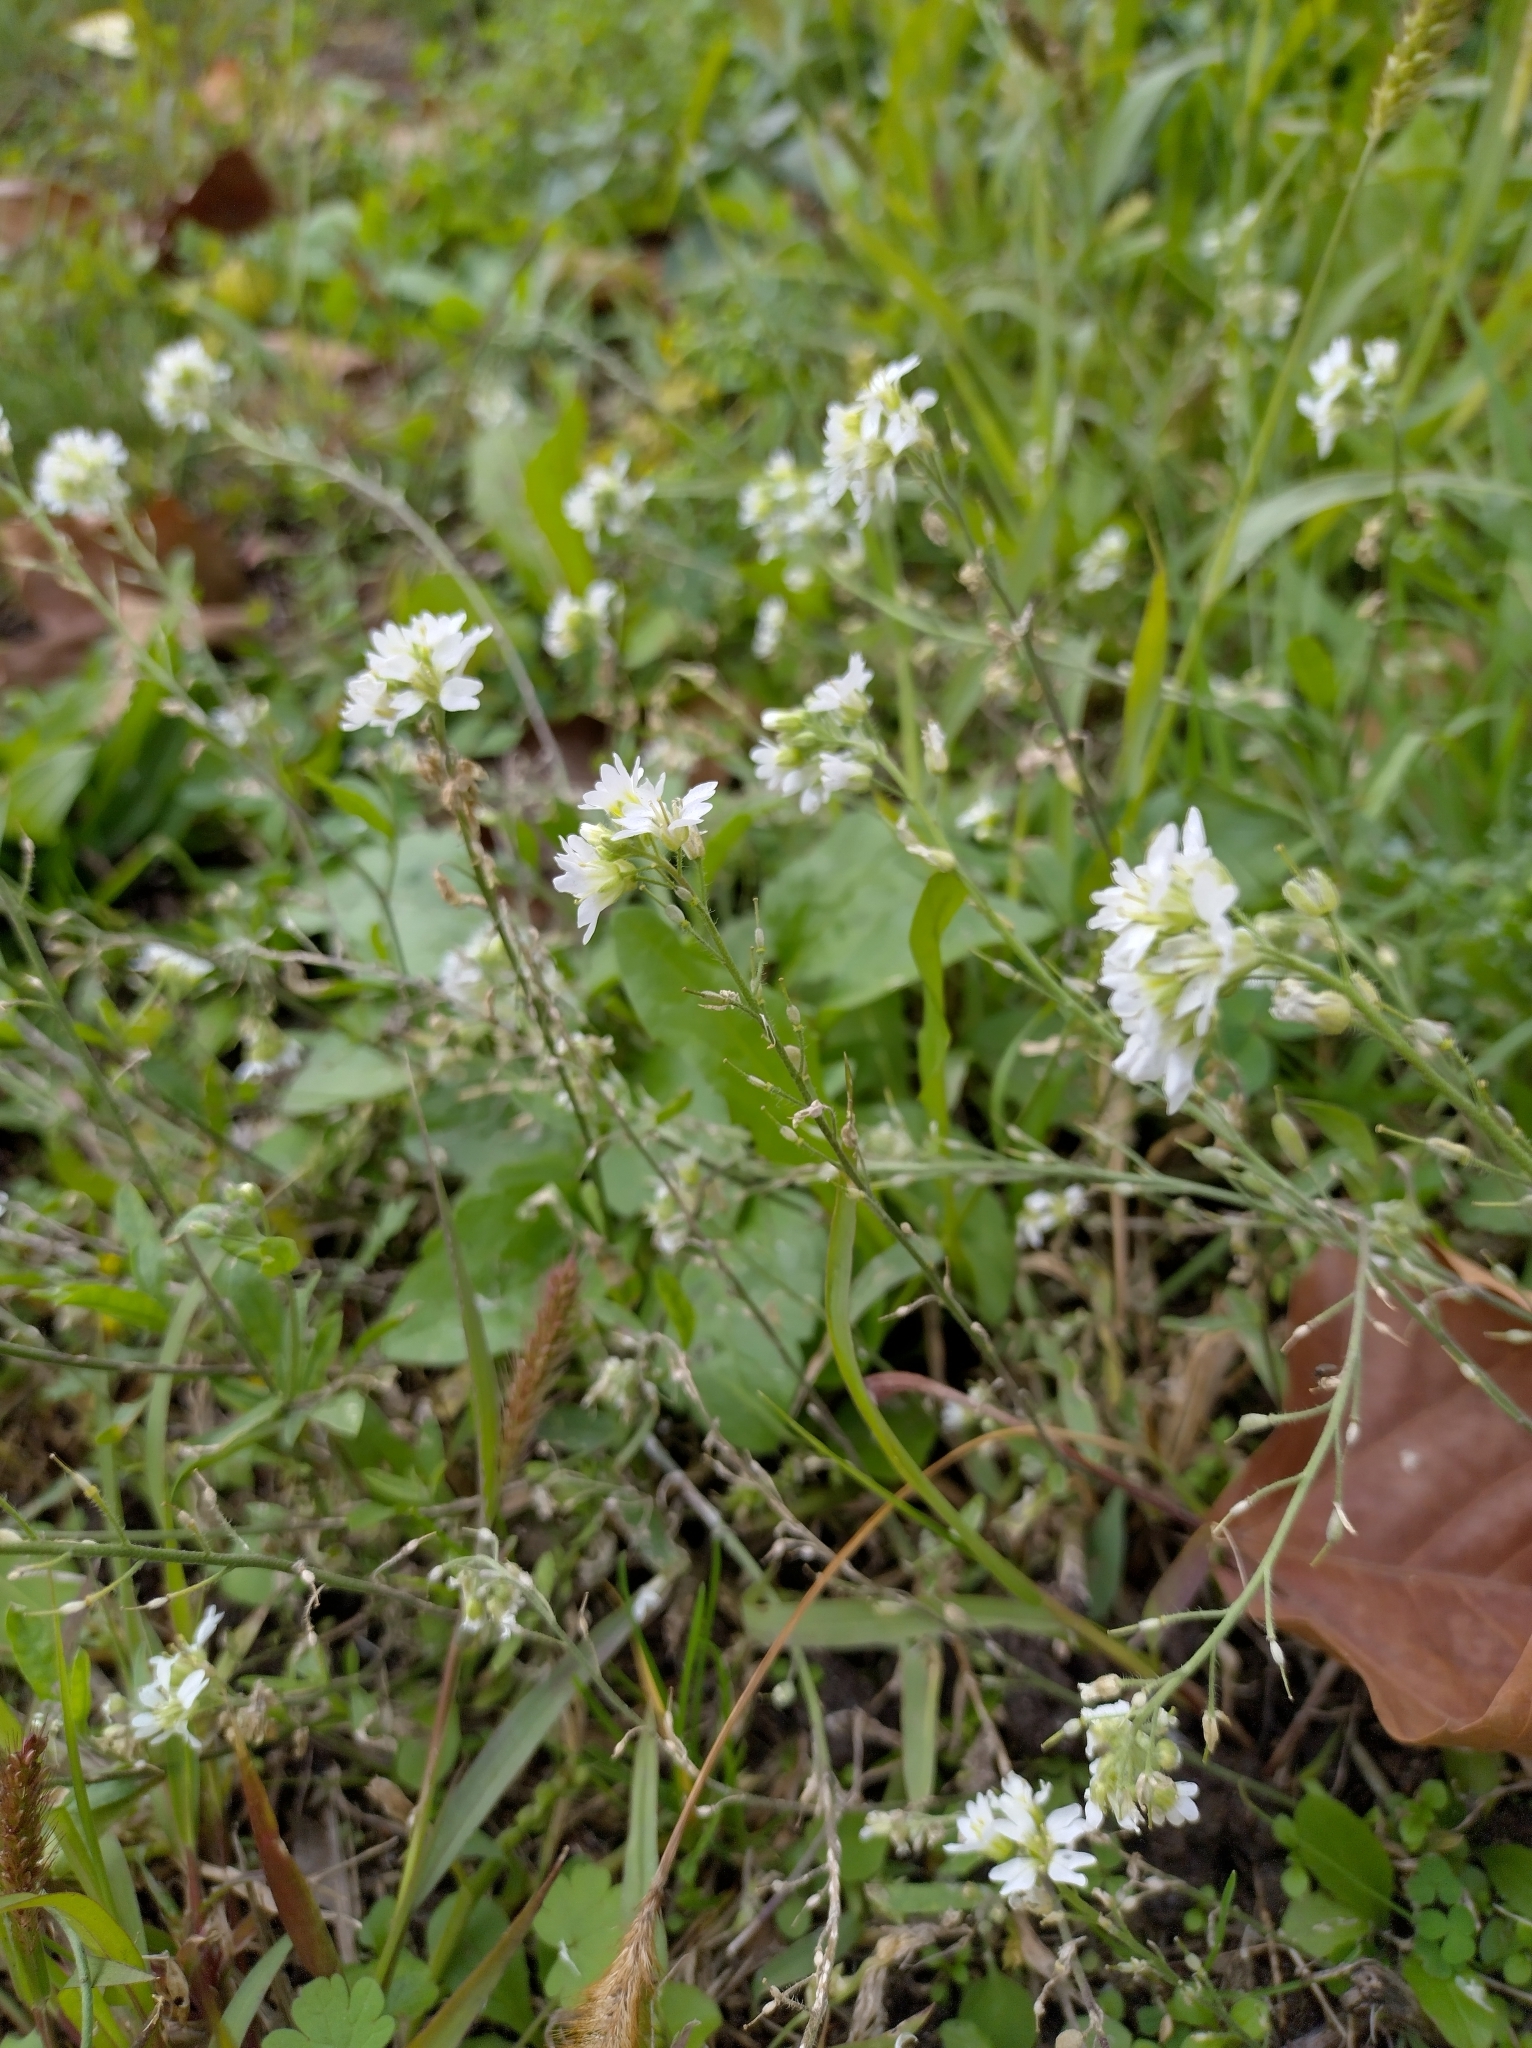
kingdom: Plantae
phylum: Tracheophyta
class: Magnoliopsida
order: Brassicales
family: Brassicaceae
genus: Berteroa
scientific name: Berteroa incana
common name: Hoary alison
